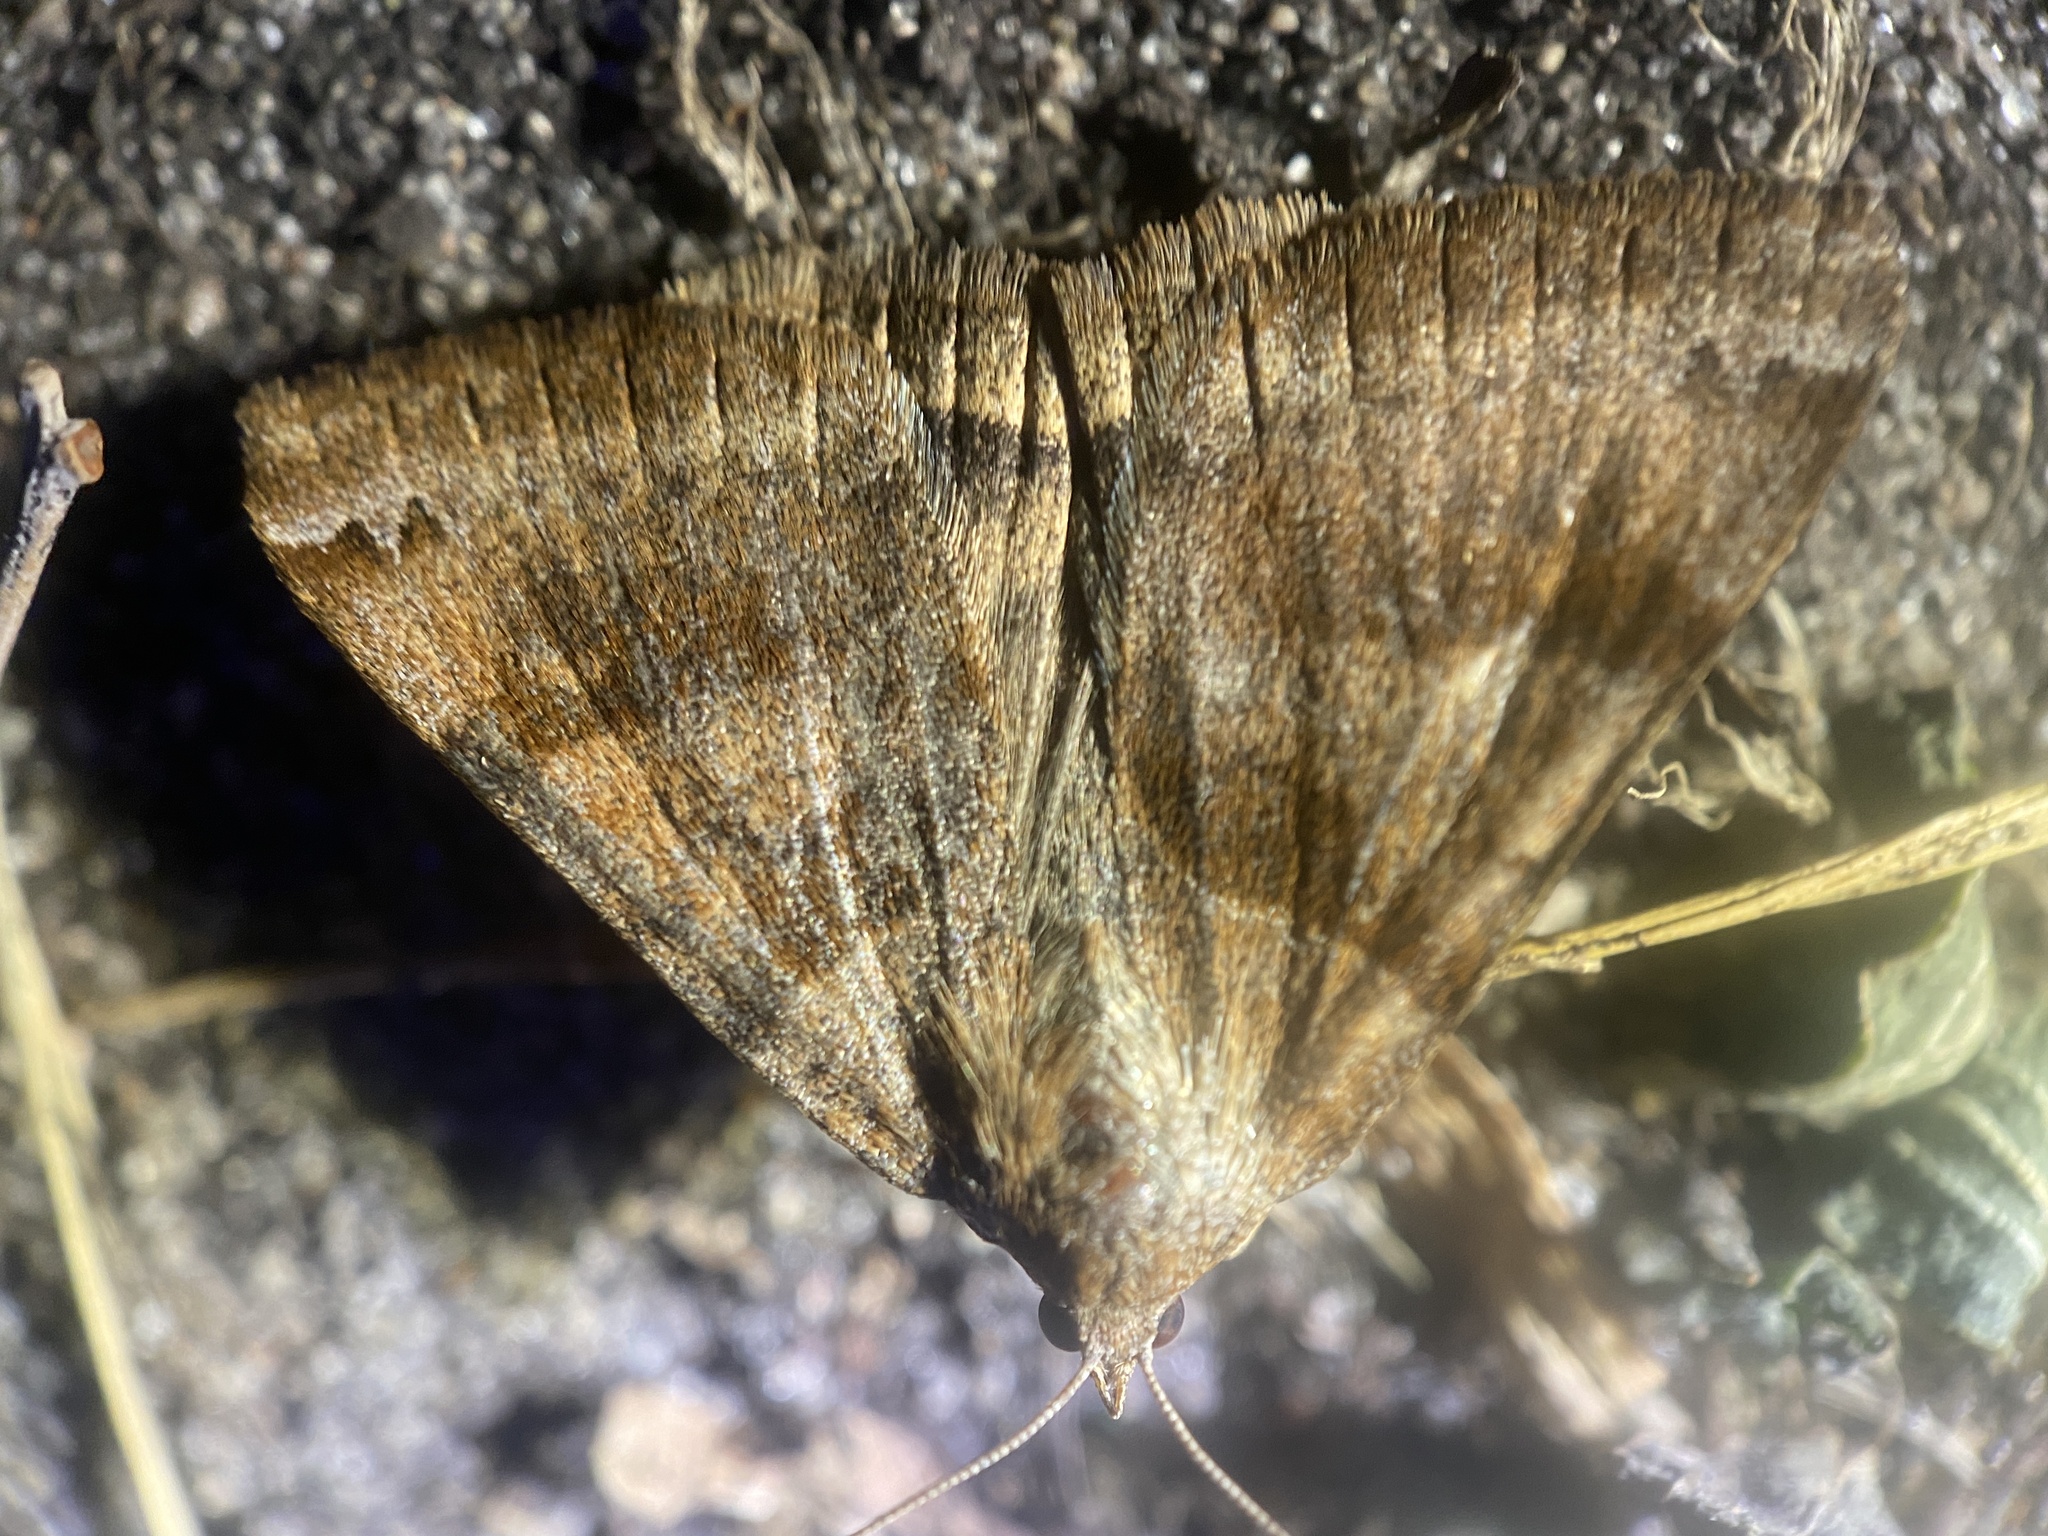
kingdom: Animalia
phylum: Arthropoda
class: Insecta
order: Lepidoptera
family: Erebidae
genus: Caenurgina
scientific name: Caenurgina crassiuscula
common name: Double-barred
